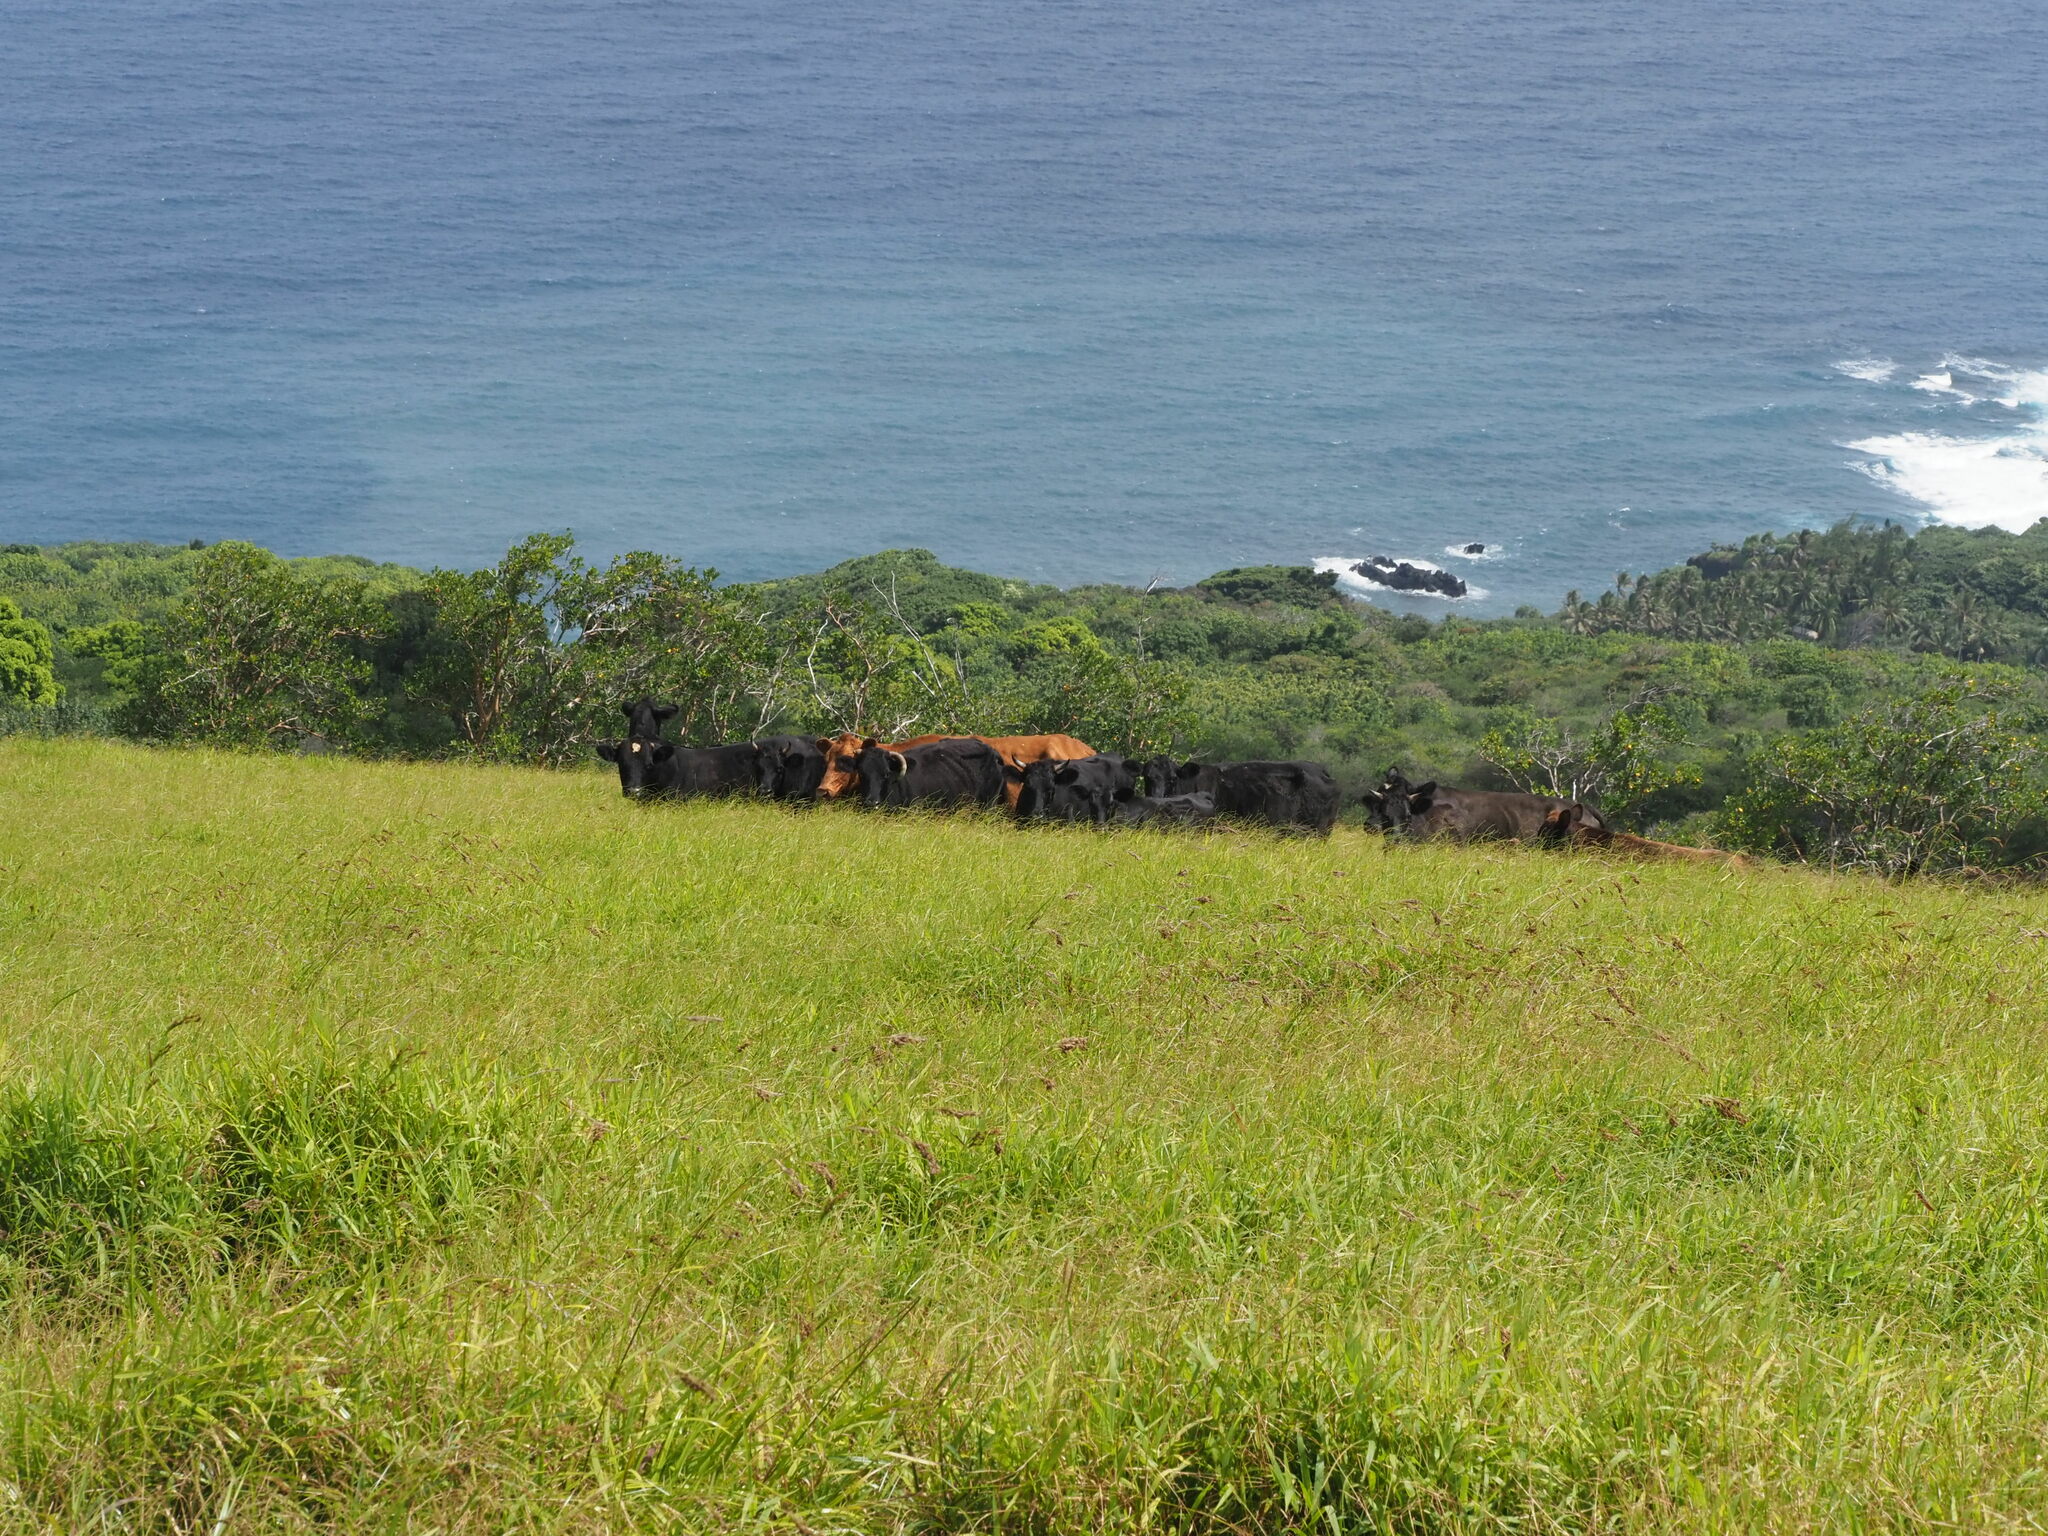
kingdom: Animalia
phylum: Chordata
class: Mammalia
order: Artiodactyla
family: Bovidae
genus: Bos
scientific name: Bos taurus
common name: Domesticated cattle
